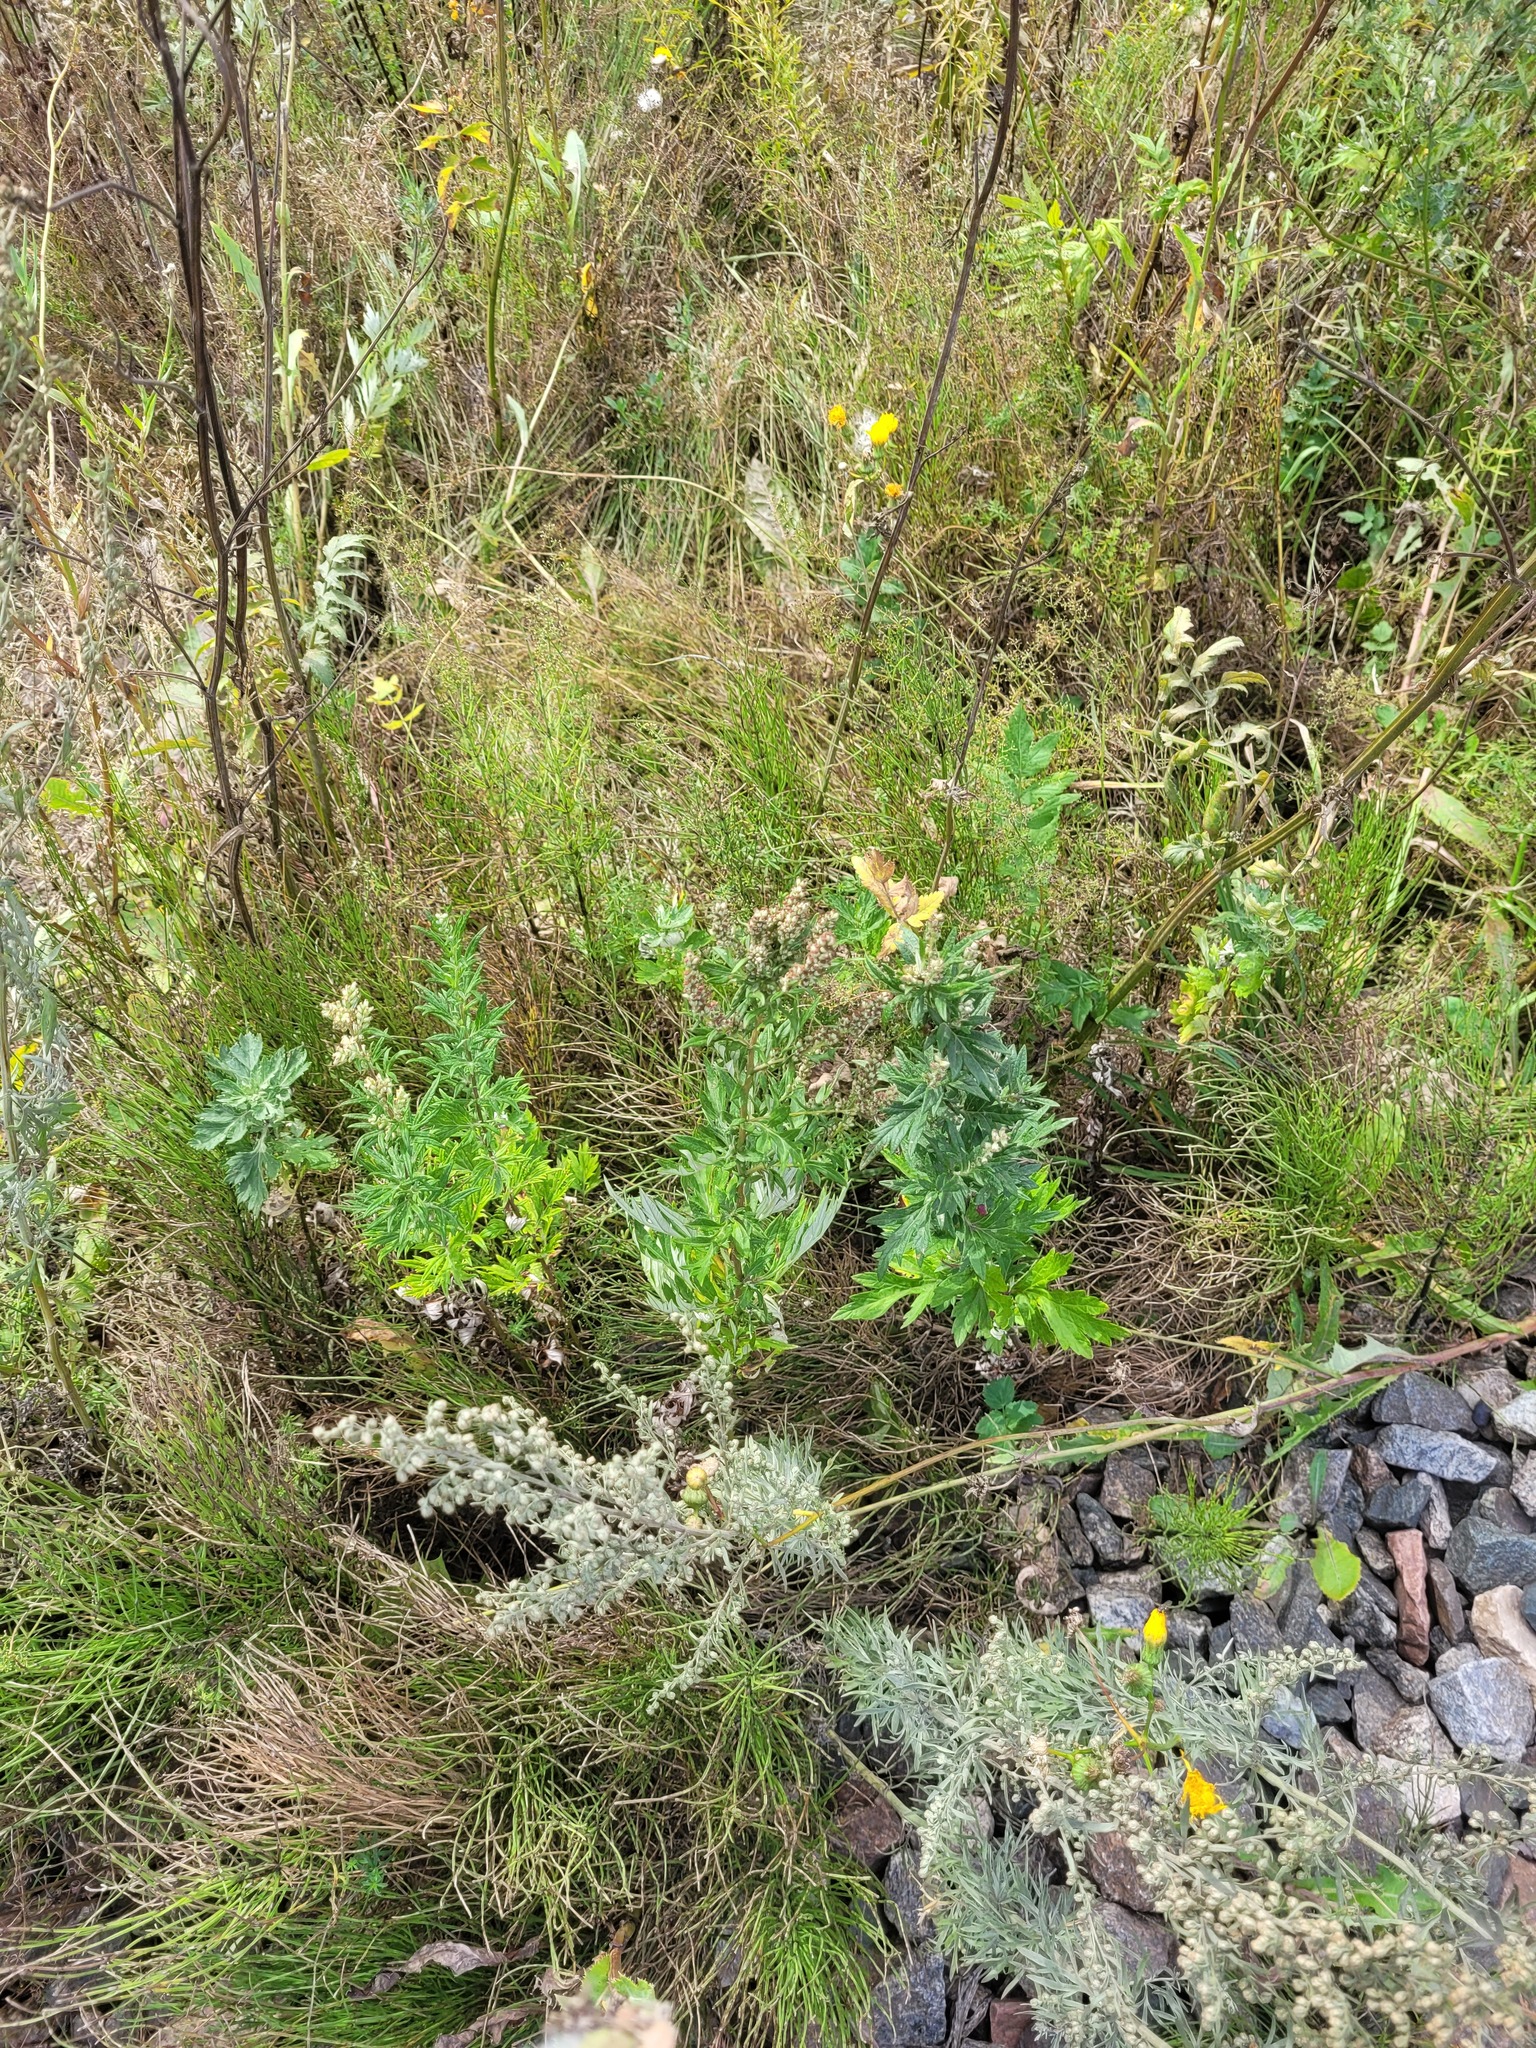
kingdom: Plantae
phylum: Tracheophyta
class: Magnoliopsida
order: Asterales
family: Asteraceae
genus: Artemisia
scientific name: Artemisia vulgaris
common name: Mugwort
